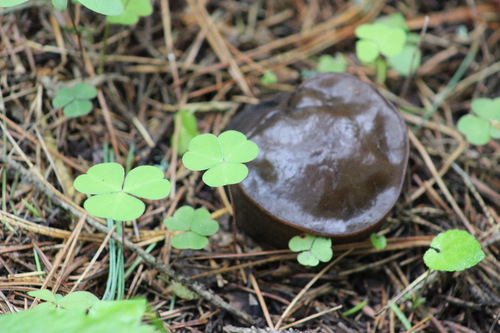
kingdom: Fungi
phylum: Ascomycota
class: Pezizomycetes
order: Pezizales
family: Sarcosomataceae
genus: Sarcosoma
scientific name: Sarcosoma globosum
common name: Charred-pancake cup
